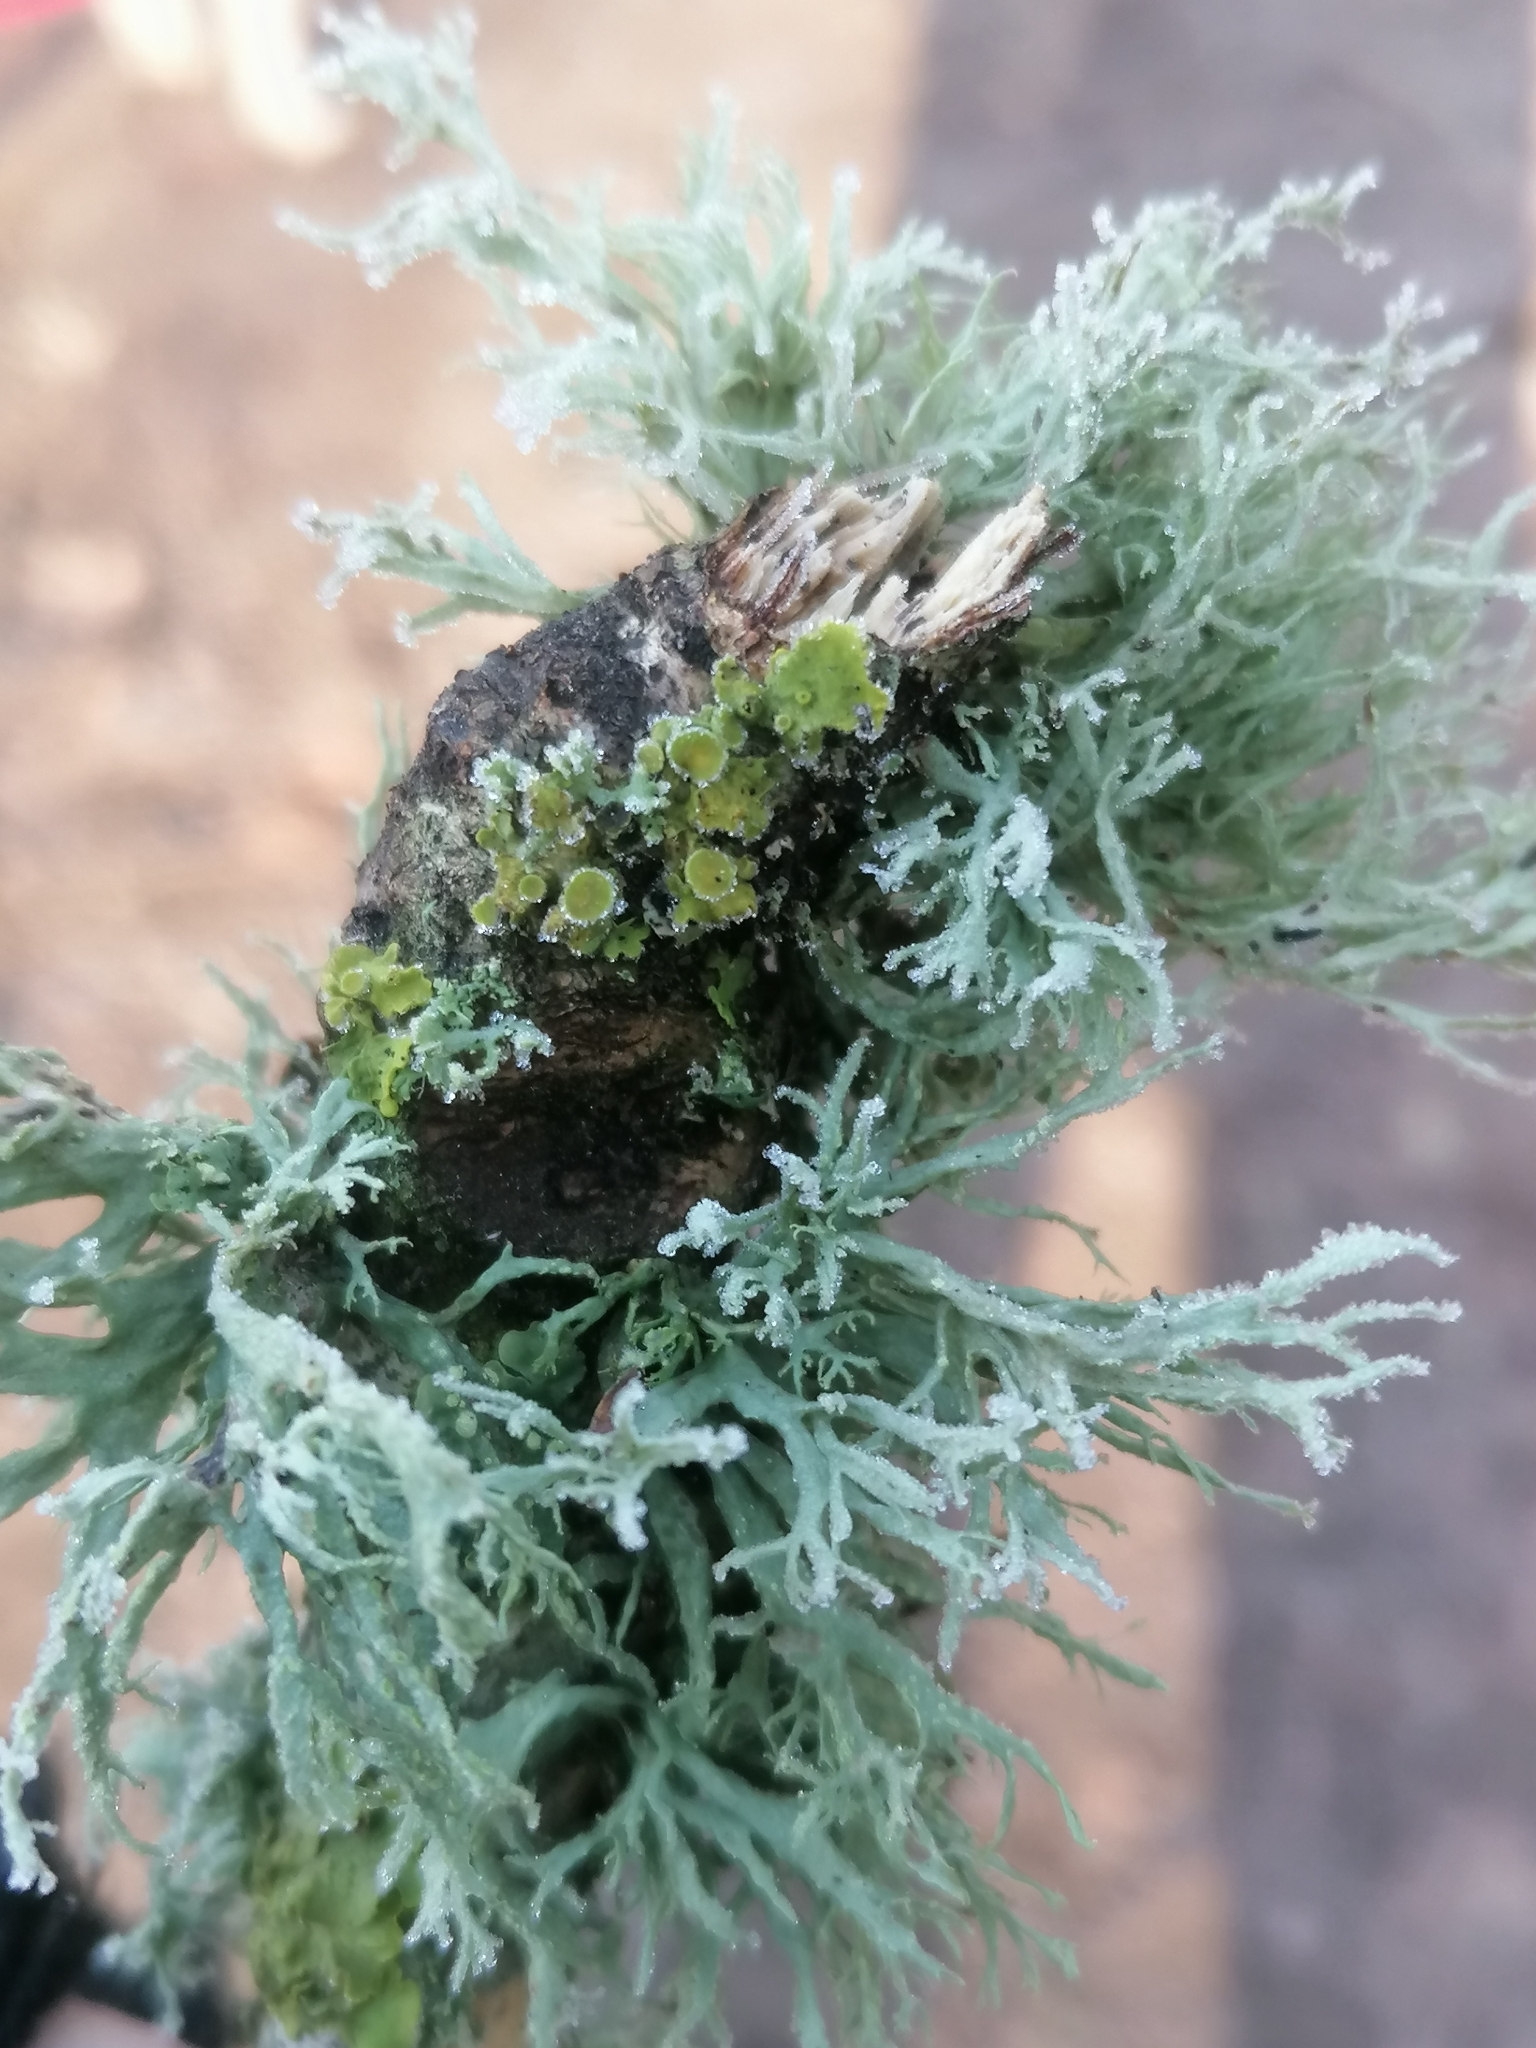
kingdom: Fungi
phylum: Ascomycota
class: Lecanoromycetes
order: Lecanorales
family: Ramalinaceae
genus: Ramalina
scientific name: Ramalina farinacea
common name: Farinose cartilage lichen
